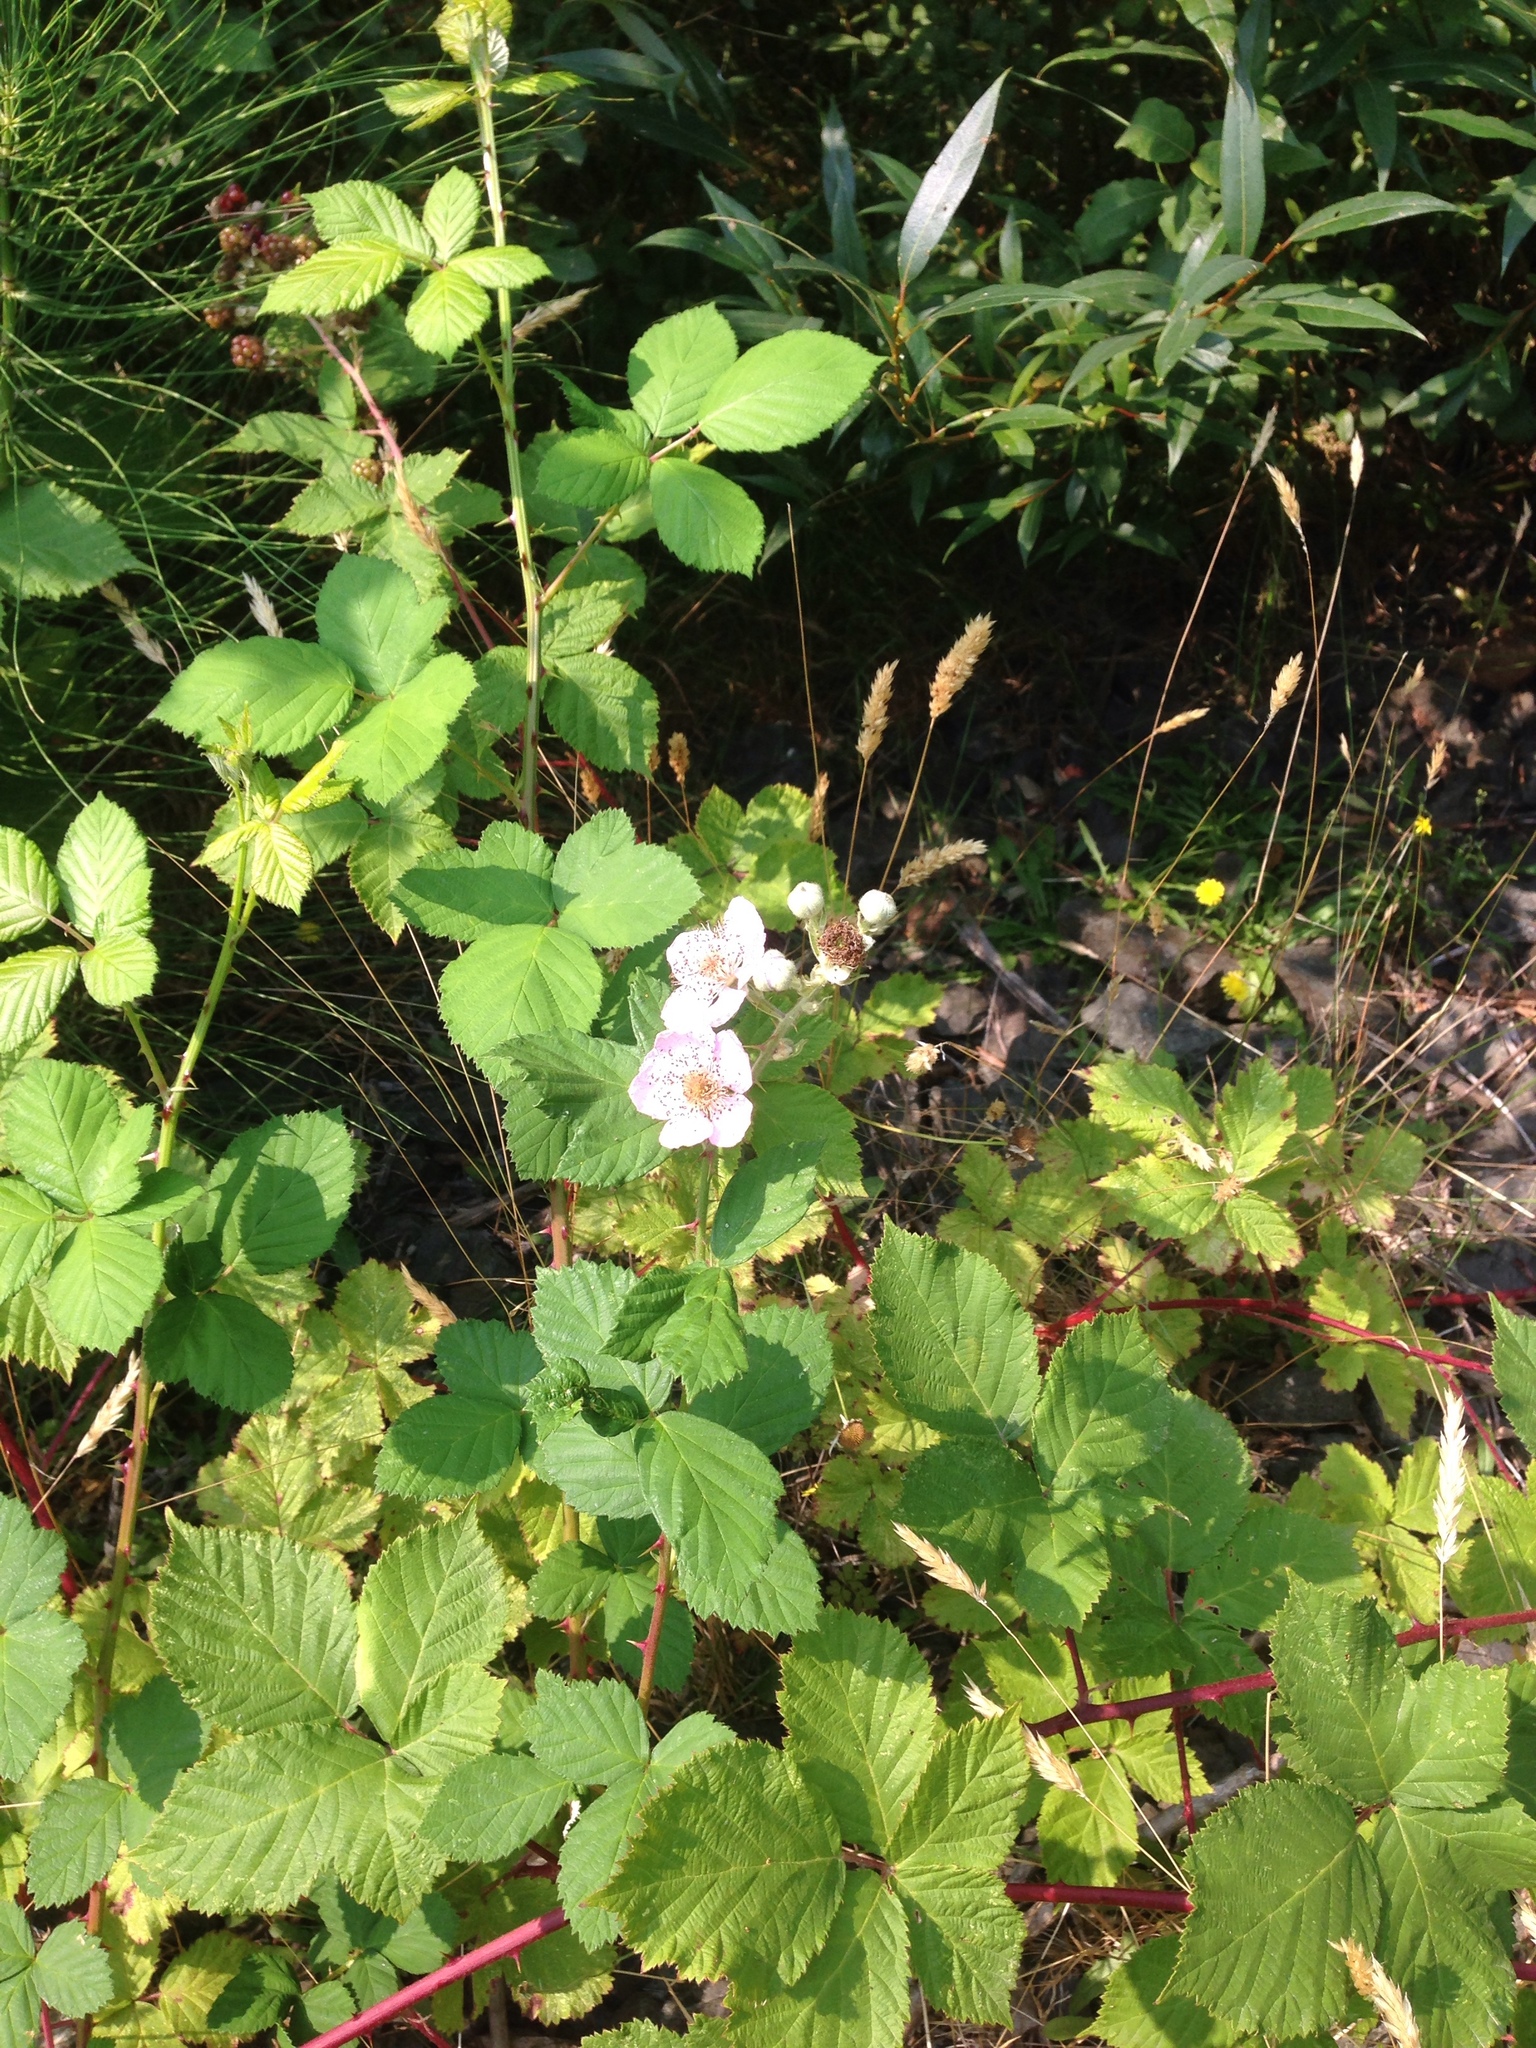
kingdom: Plantae
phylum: Tracheophyta
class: Magnoliopsida
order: Rosales
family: Rosaceae
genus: Rubus
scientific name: Rubus armeniacus
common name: Himalayan blackberry
